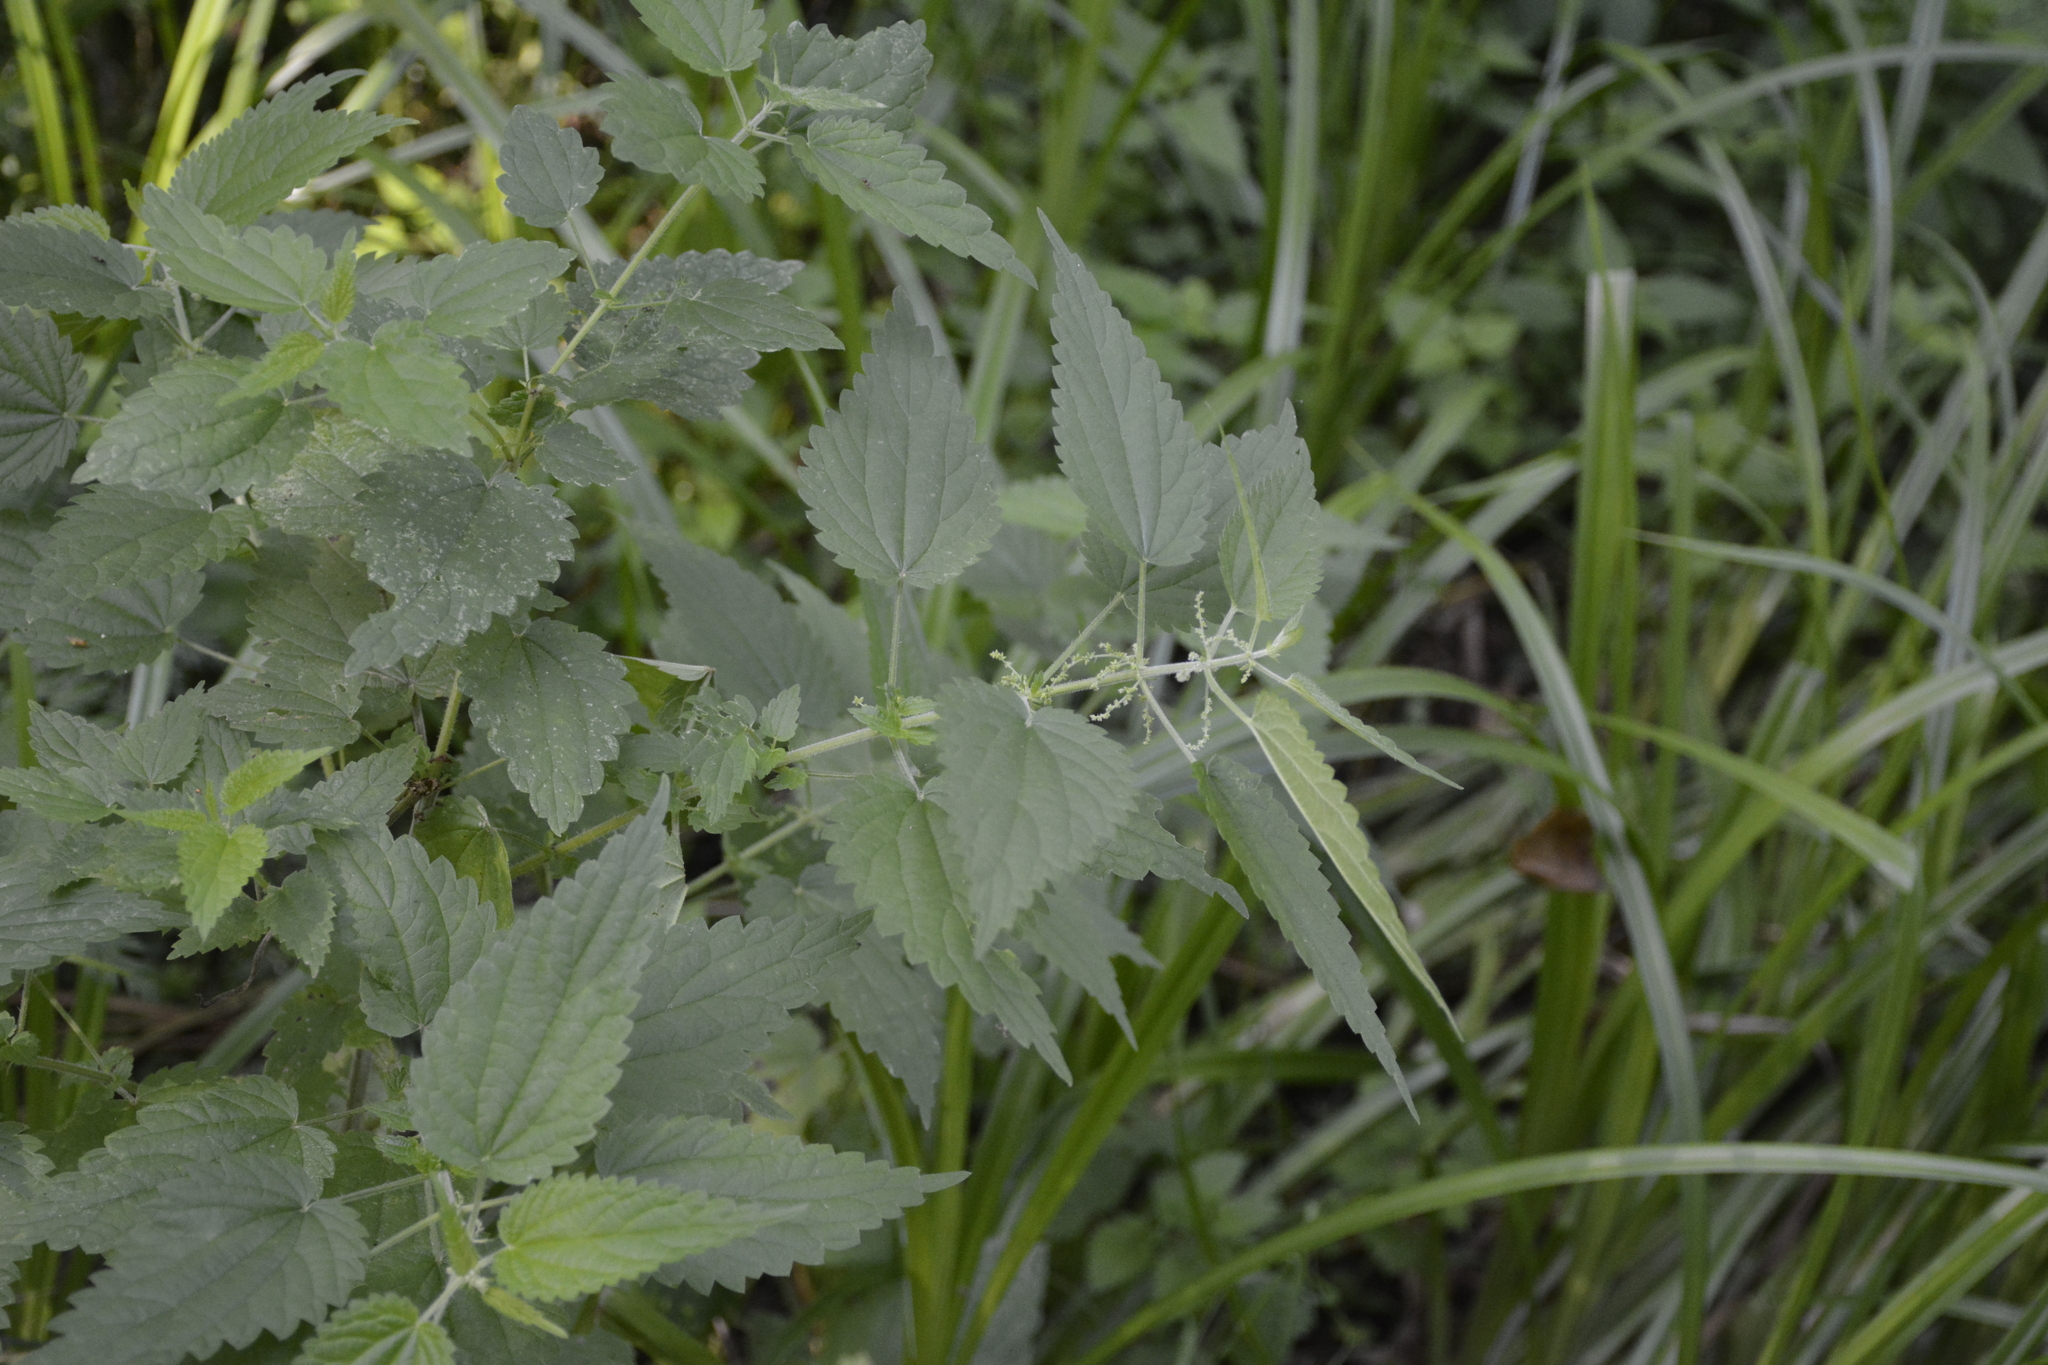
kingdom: Plantae
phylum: Tracheophyta
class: Magnoliopsida
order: Rosales
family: Urticaceae
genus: Urtica
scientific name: Urtica dioica
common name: Common nettle
